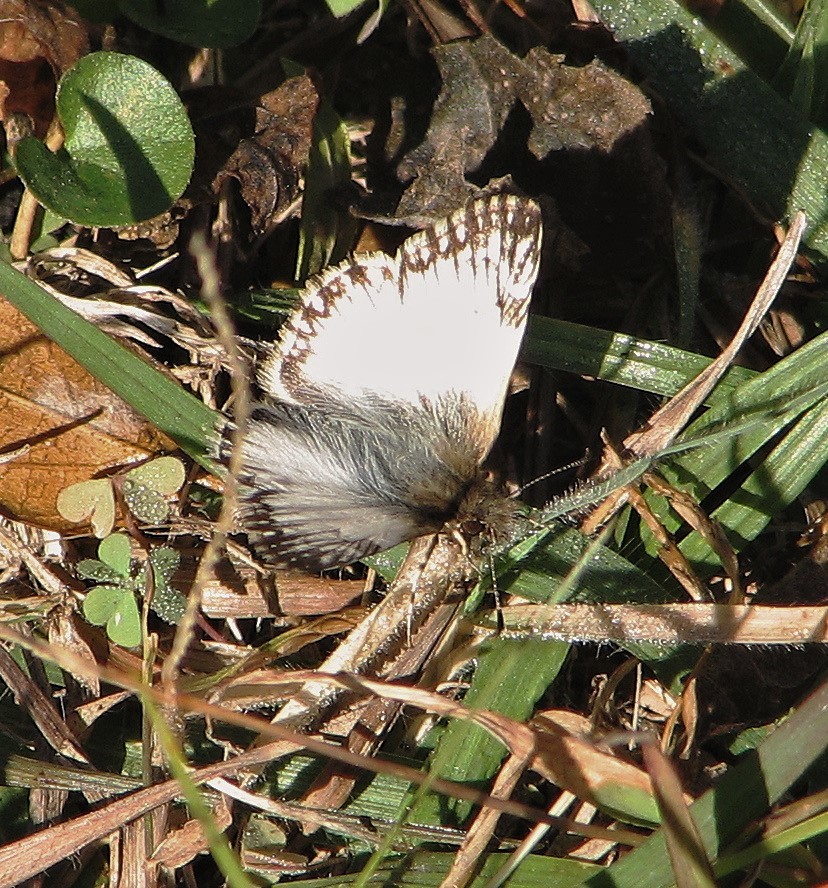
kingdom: Animalia
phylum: Arthropoda
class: Insecta
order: Lepidoptera
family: Hesperiidae
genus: Heliopetes
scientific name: Heliopetes omrina
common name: Stained white-skipper
